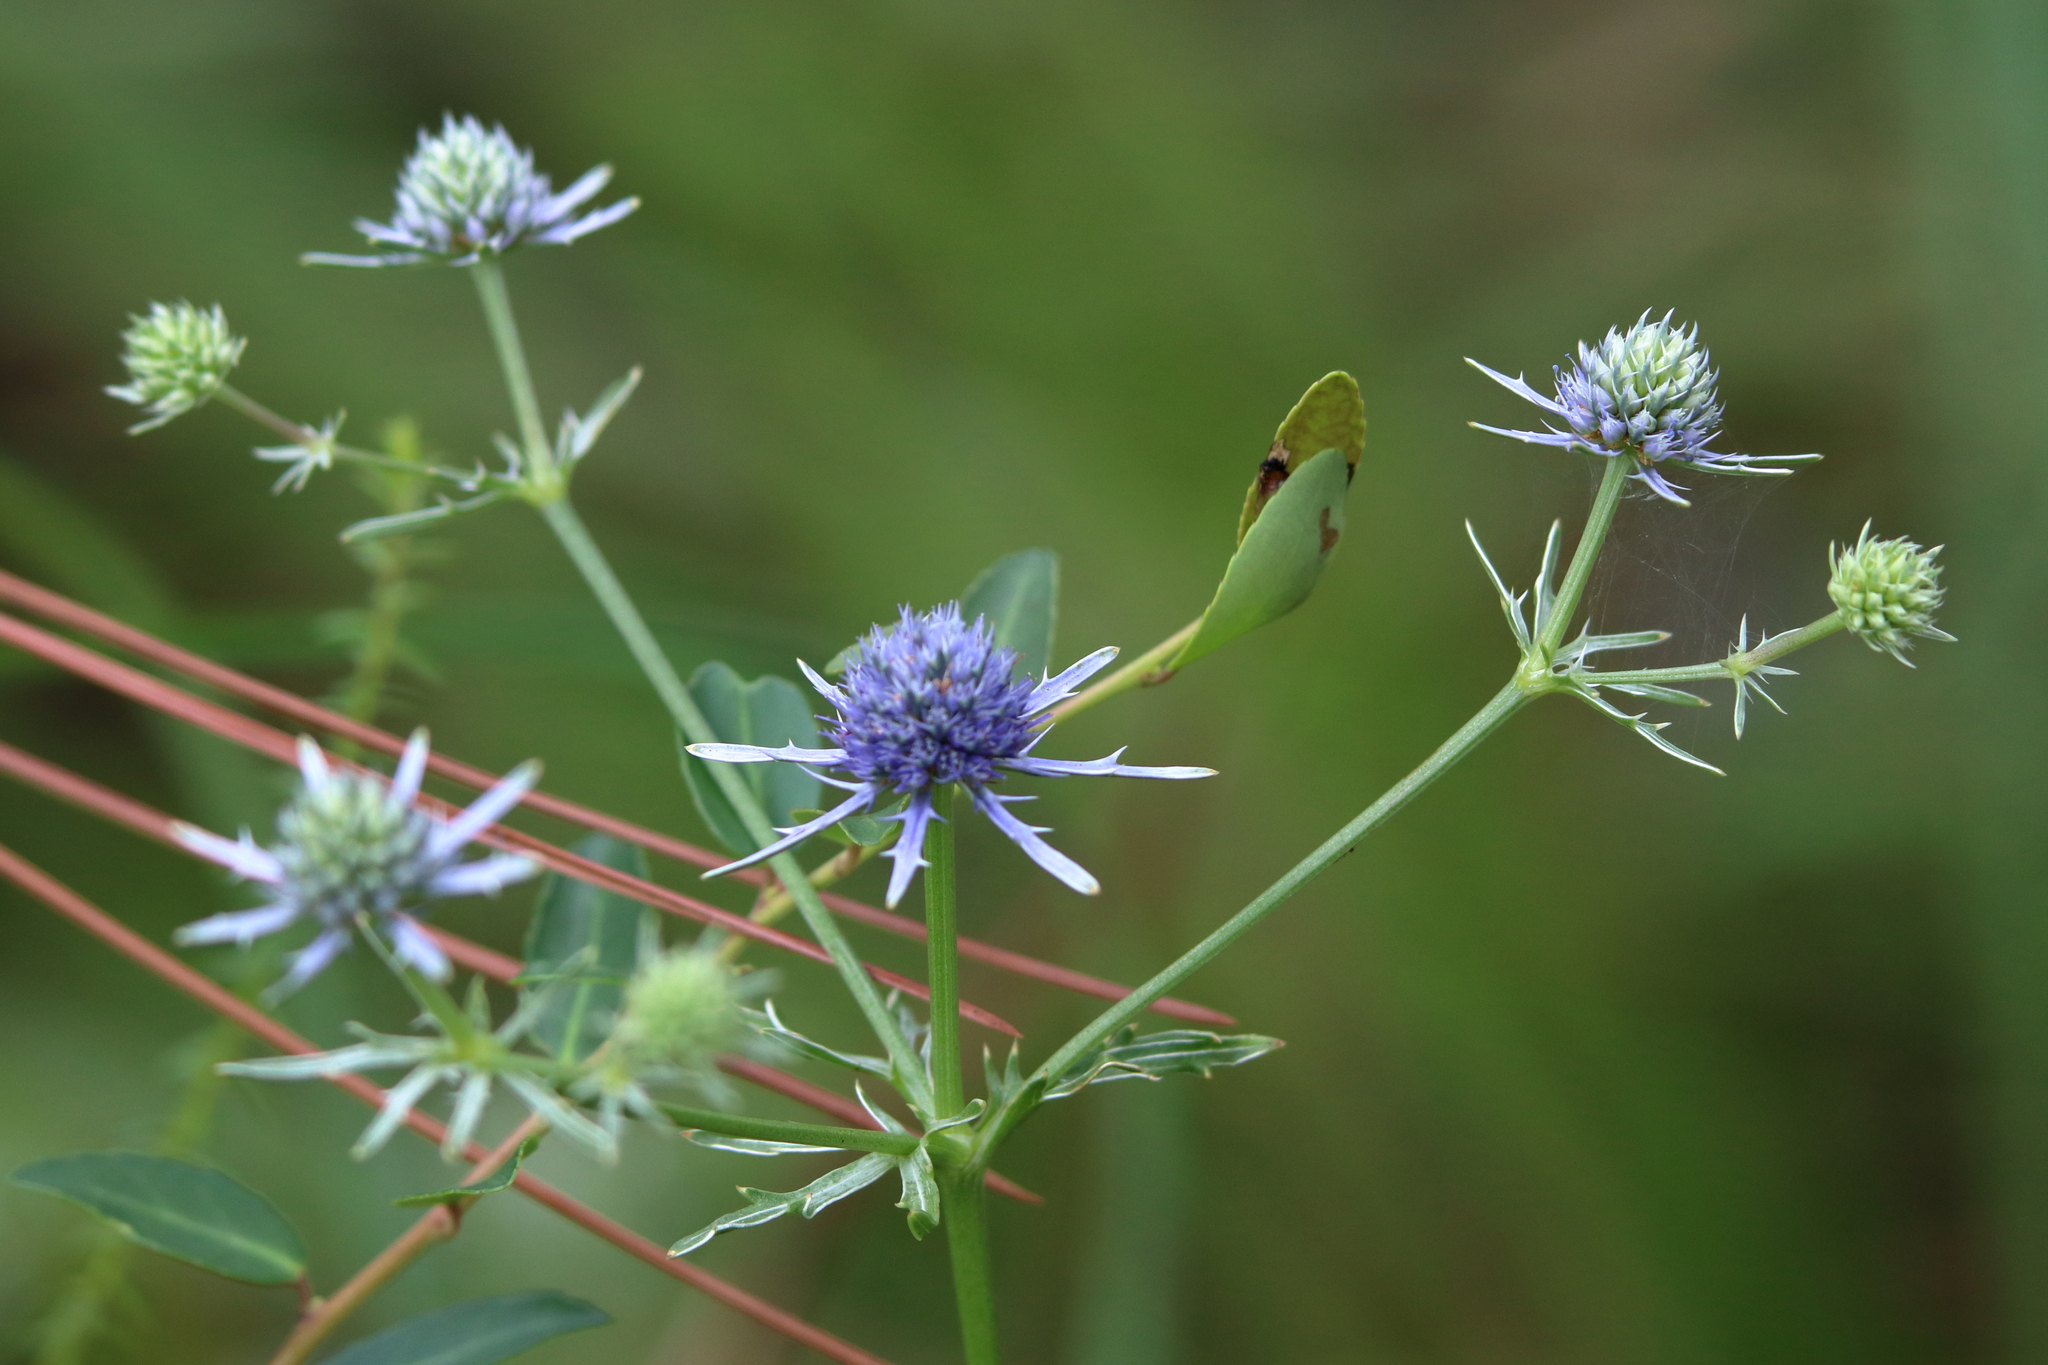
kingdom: Plantae
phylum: Tracheophyta
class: Magnoliopsida
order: Apiales
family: Apiaceae
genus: Eryngium
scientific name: Eryngium integrifolium
